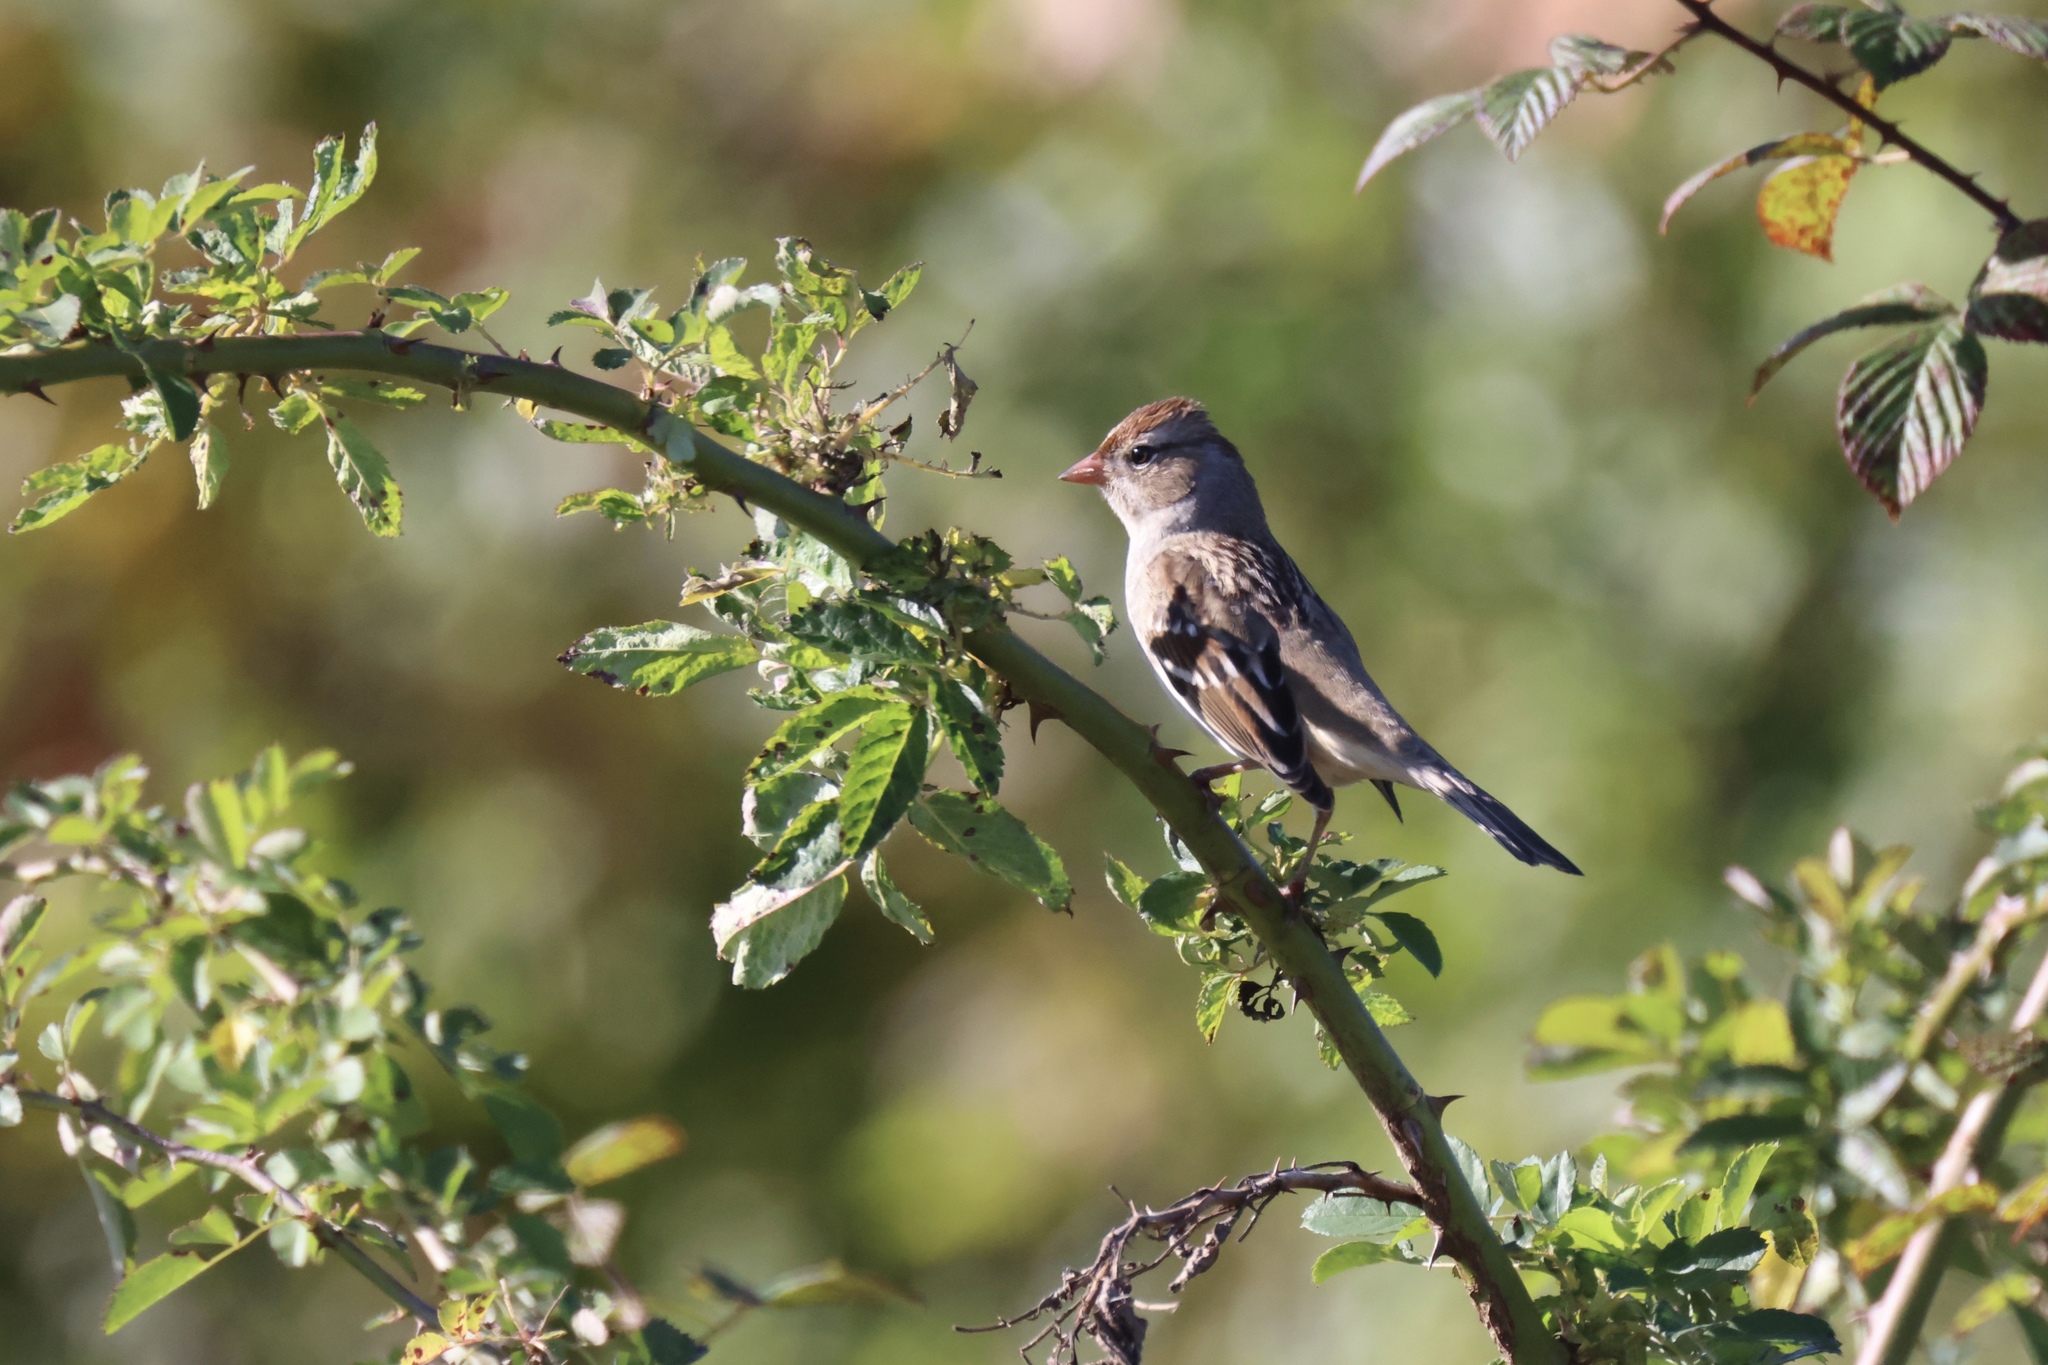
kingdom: Animalia
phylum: Chordata
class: Aves
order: Passeriformes
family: Passerellidae
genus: Zonotrichia
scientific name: Zonotrichia leucophrys
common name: White-crowned sparrow
